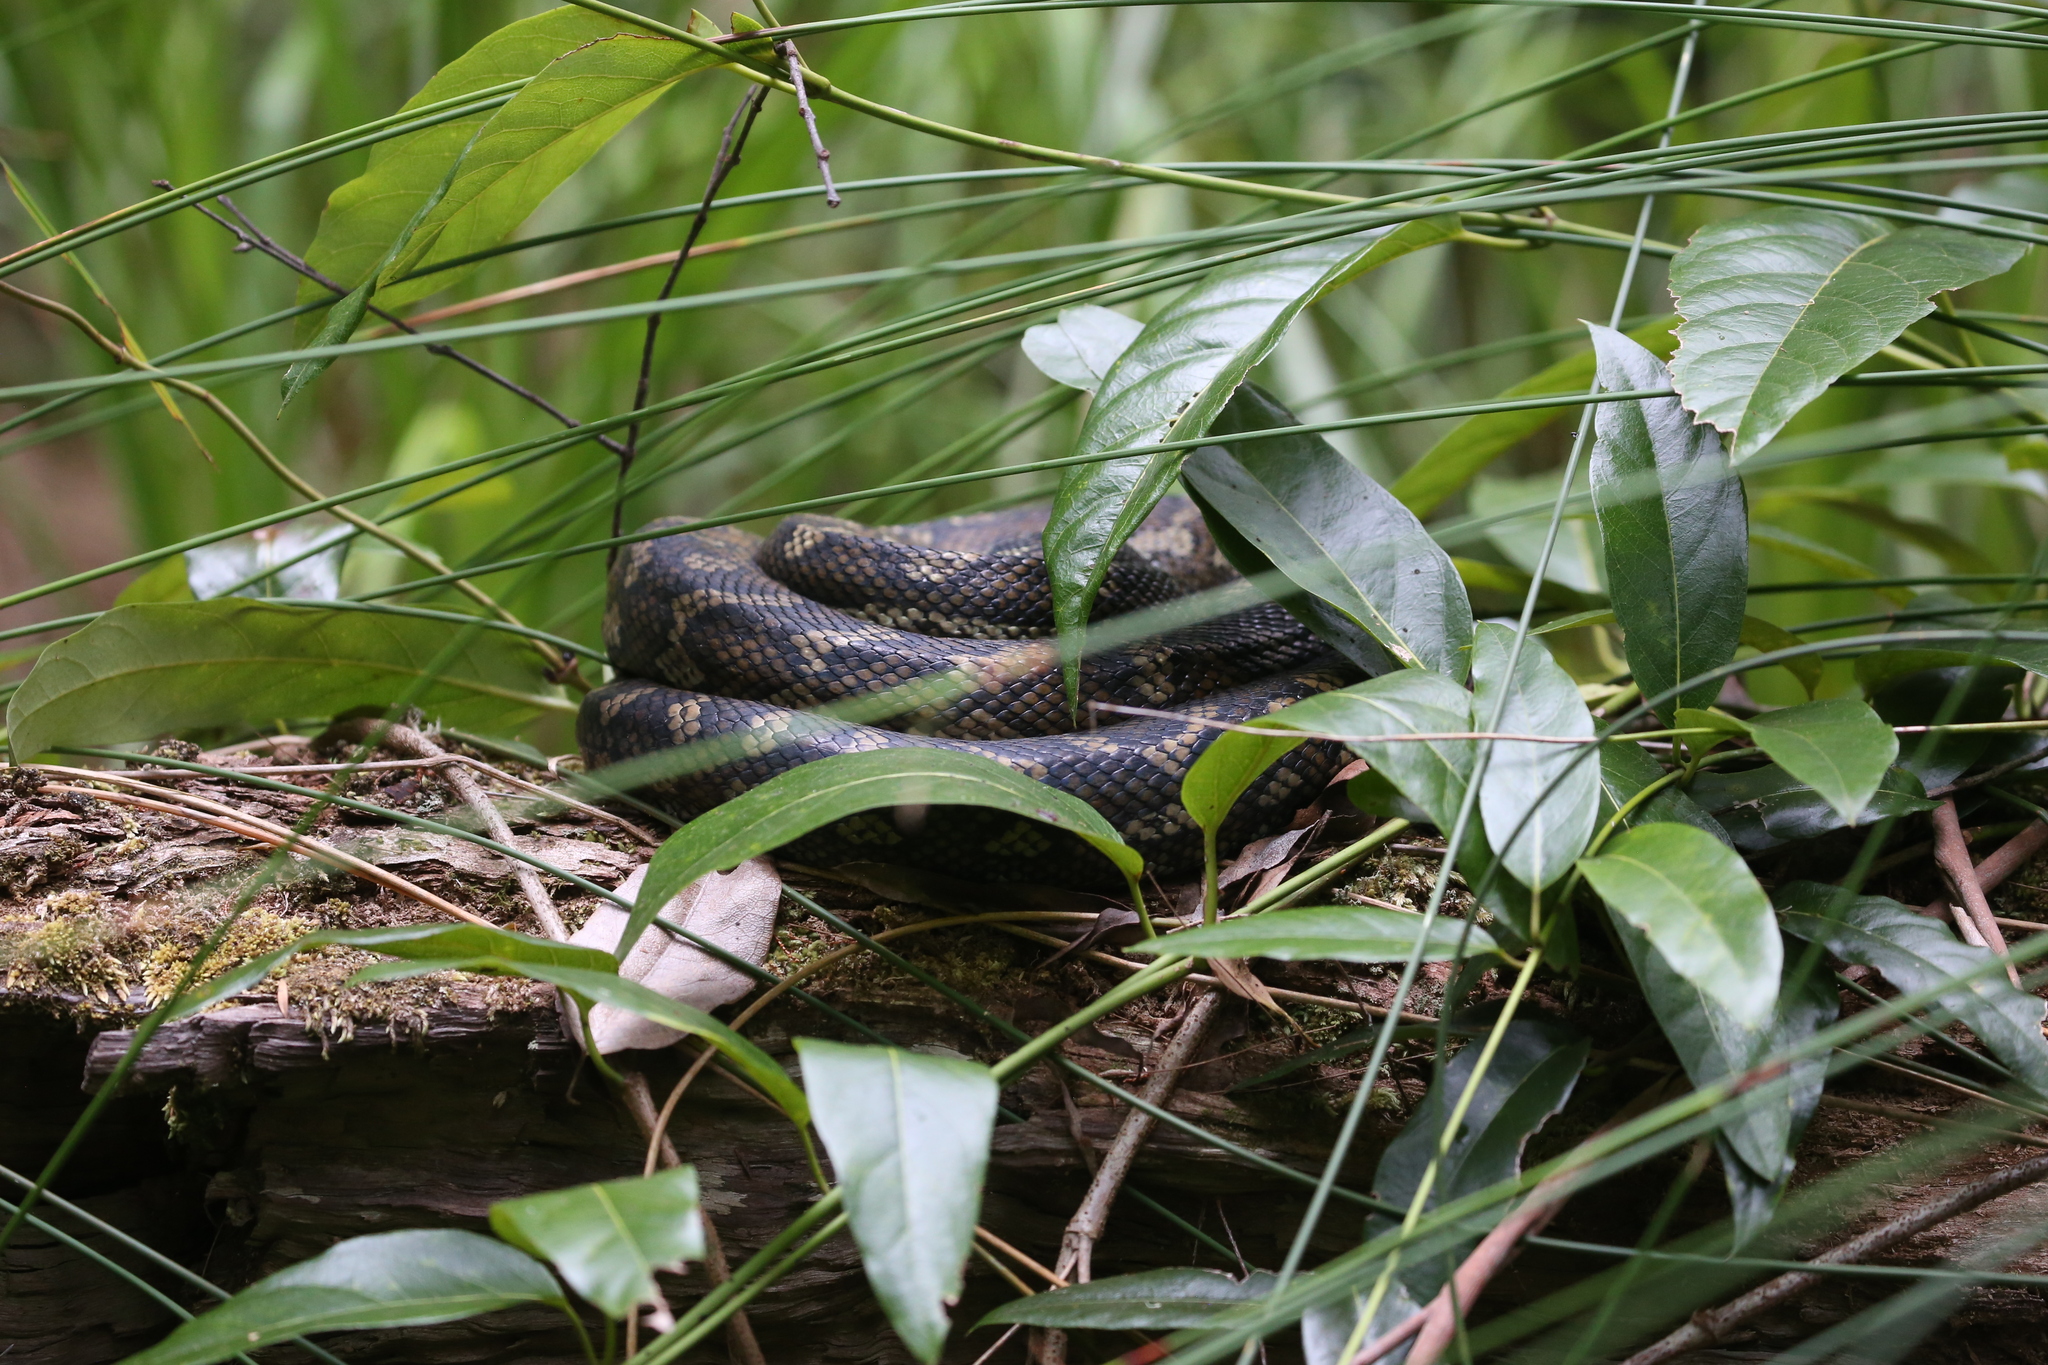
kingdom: Animalia
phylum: Chordata
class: Squamata
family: Pythonidae
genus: Morelia
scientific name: Morelia spilota
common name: Carpet python
